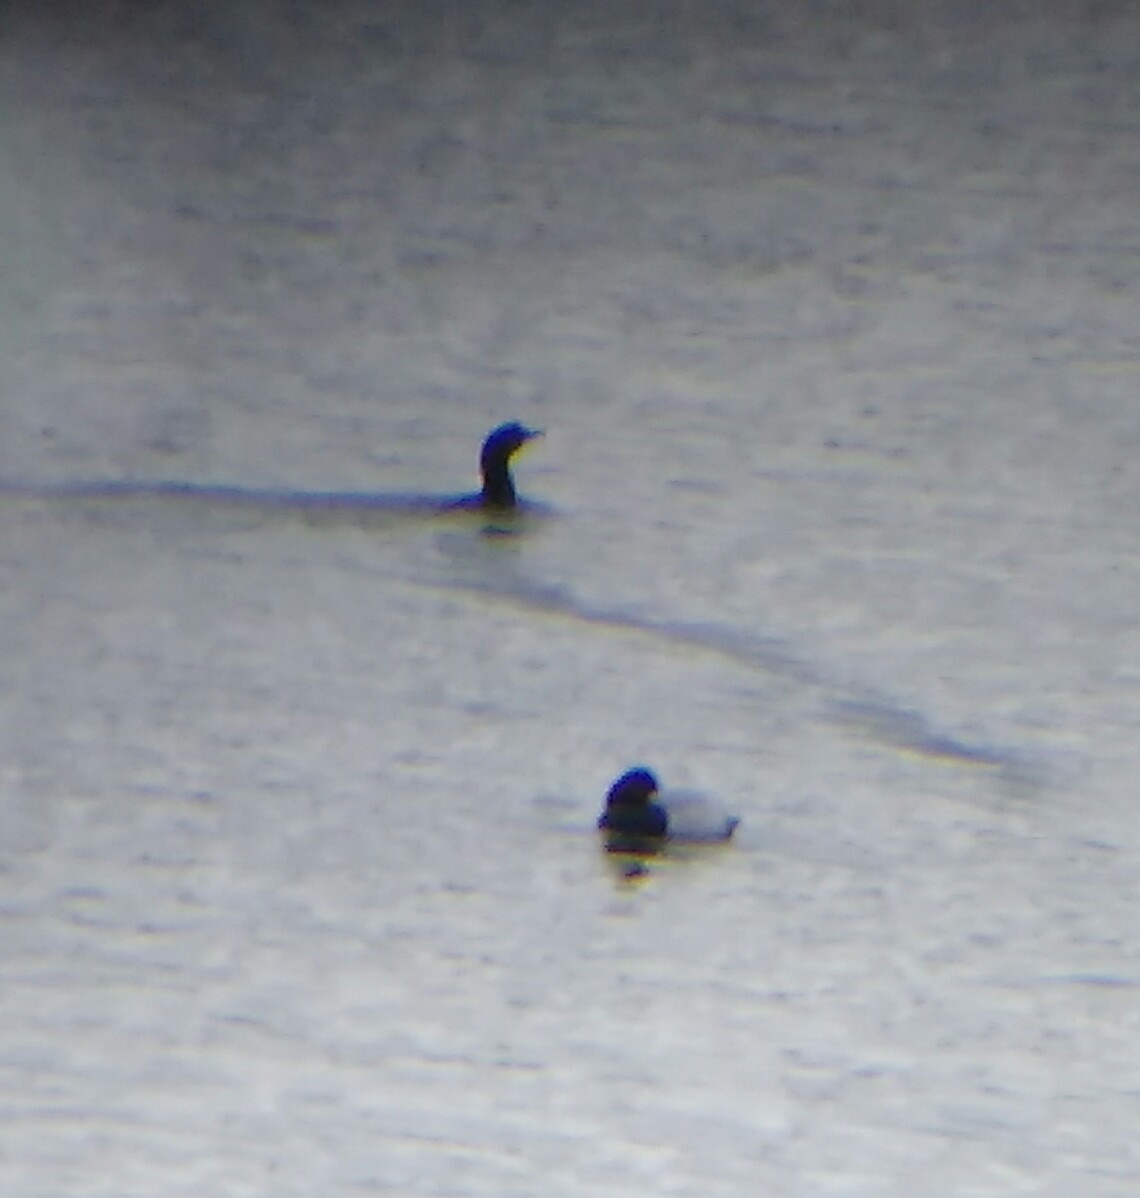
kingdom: Animalia
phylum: Chordata
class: Aves
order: Suliformes
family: Phalacrocoracidae
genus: Microcarbo
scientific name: Microcarbo pygmaeus
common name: Pygmy cormorant
